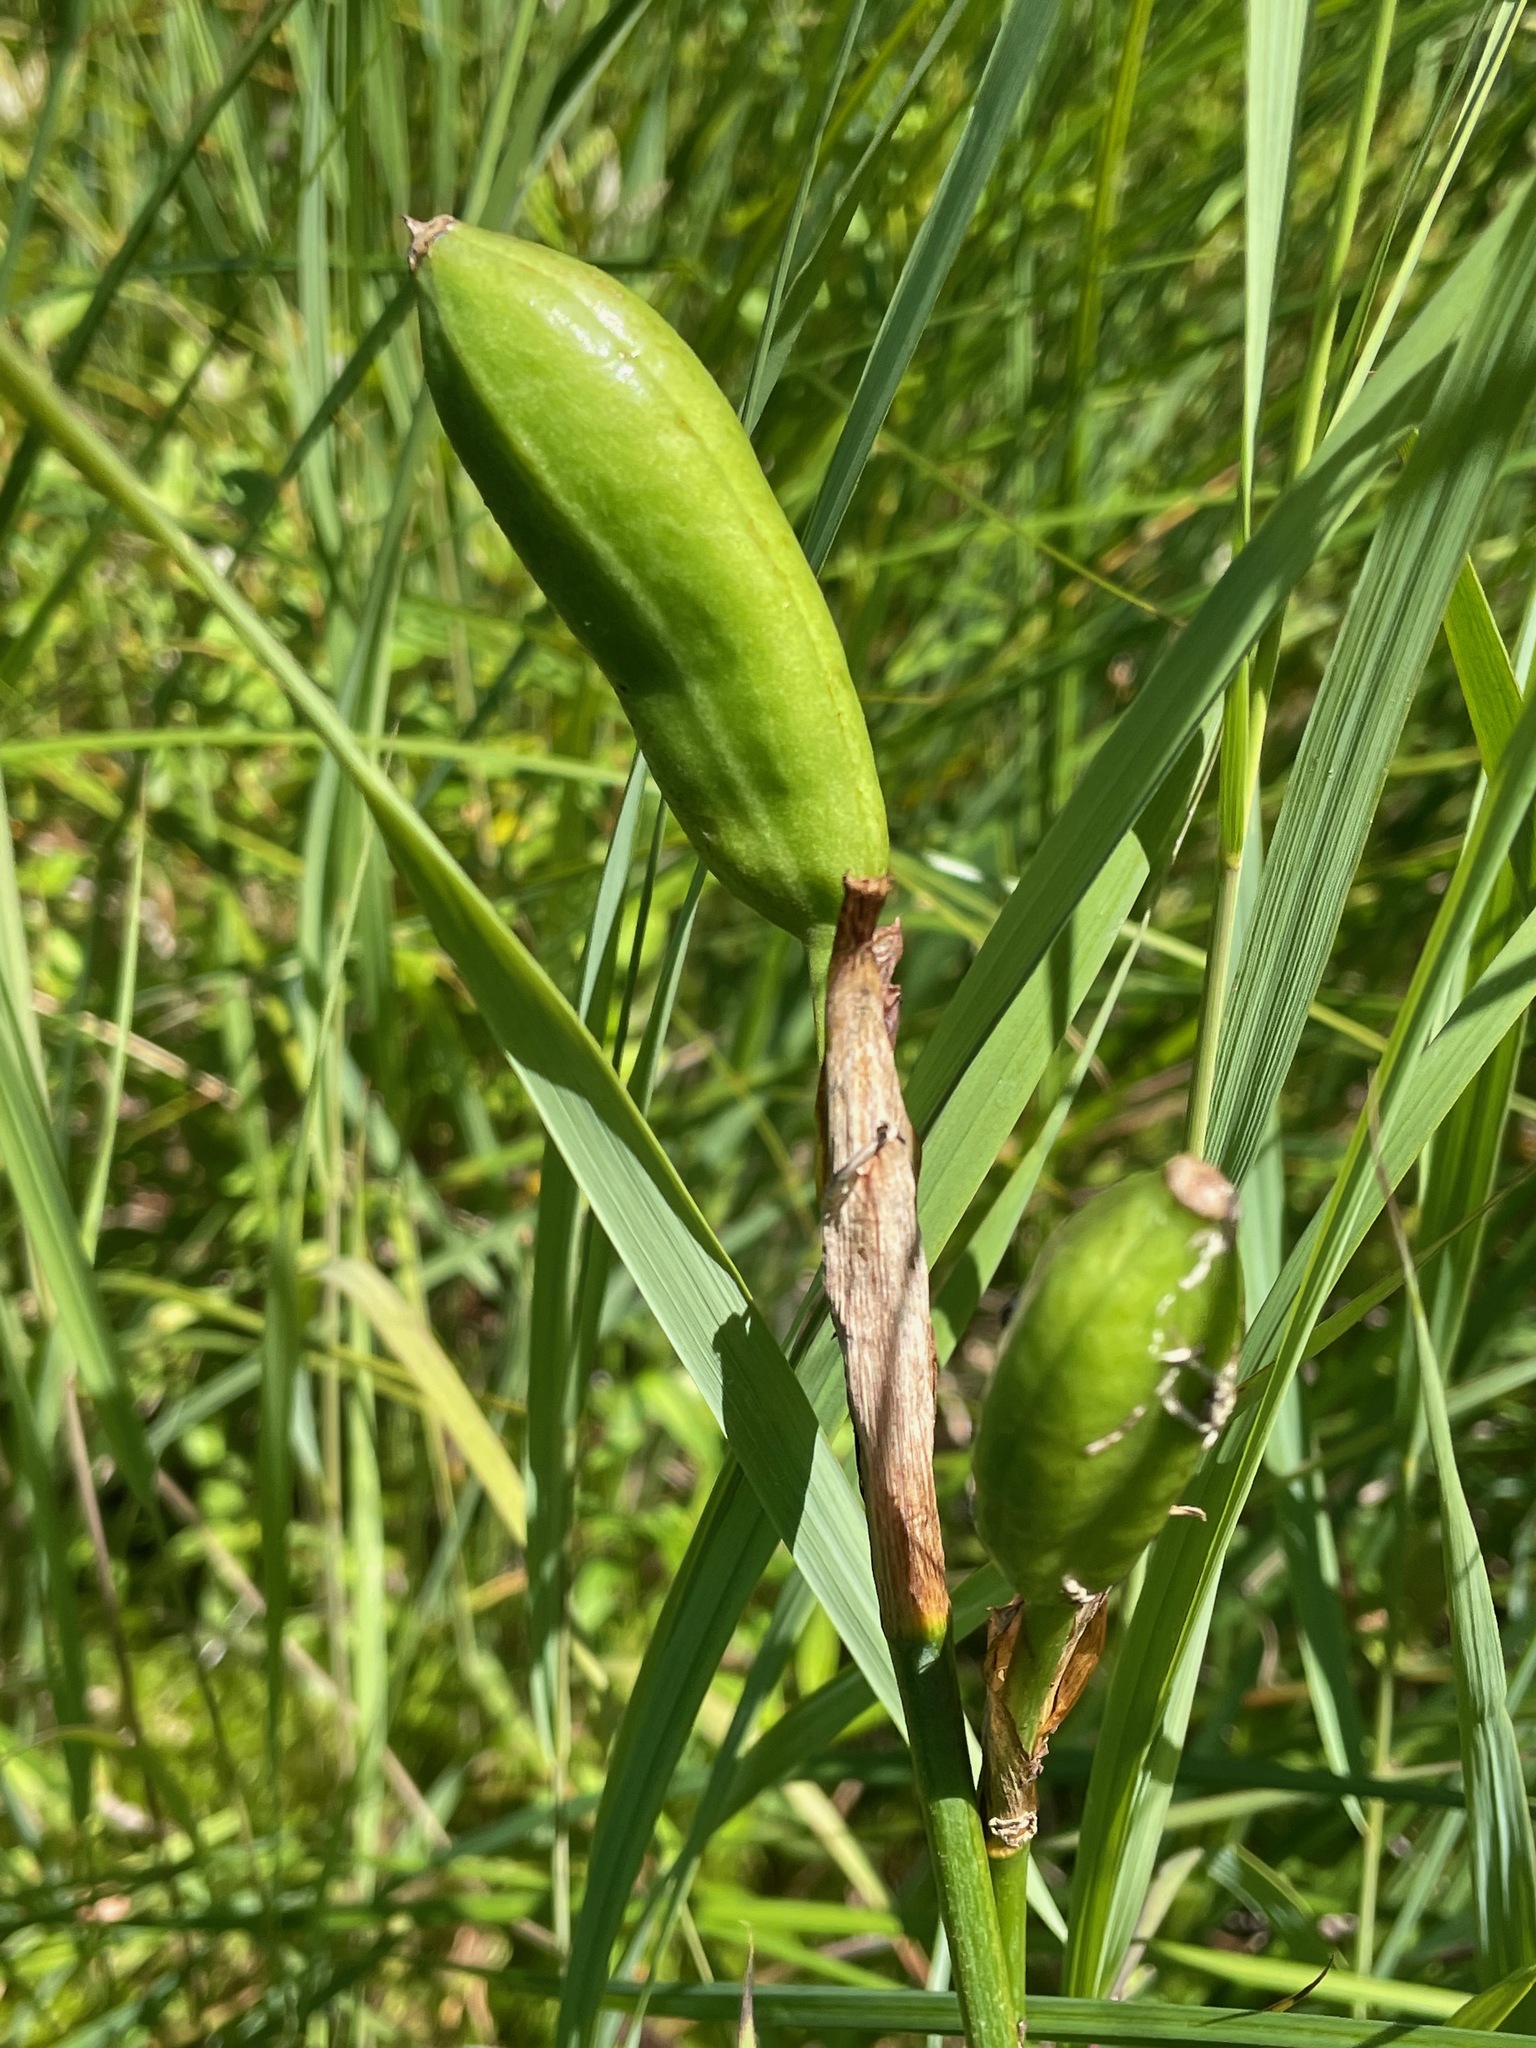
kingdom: Plantae
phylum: Tracheophyta
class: Liliopsida
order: Asparagales
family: Iridaceae
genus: Iris
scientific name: Iris versicolor
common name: Purple iris
